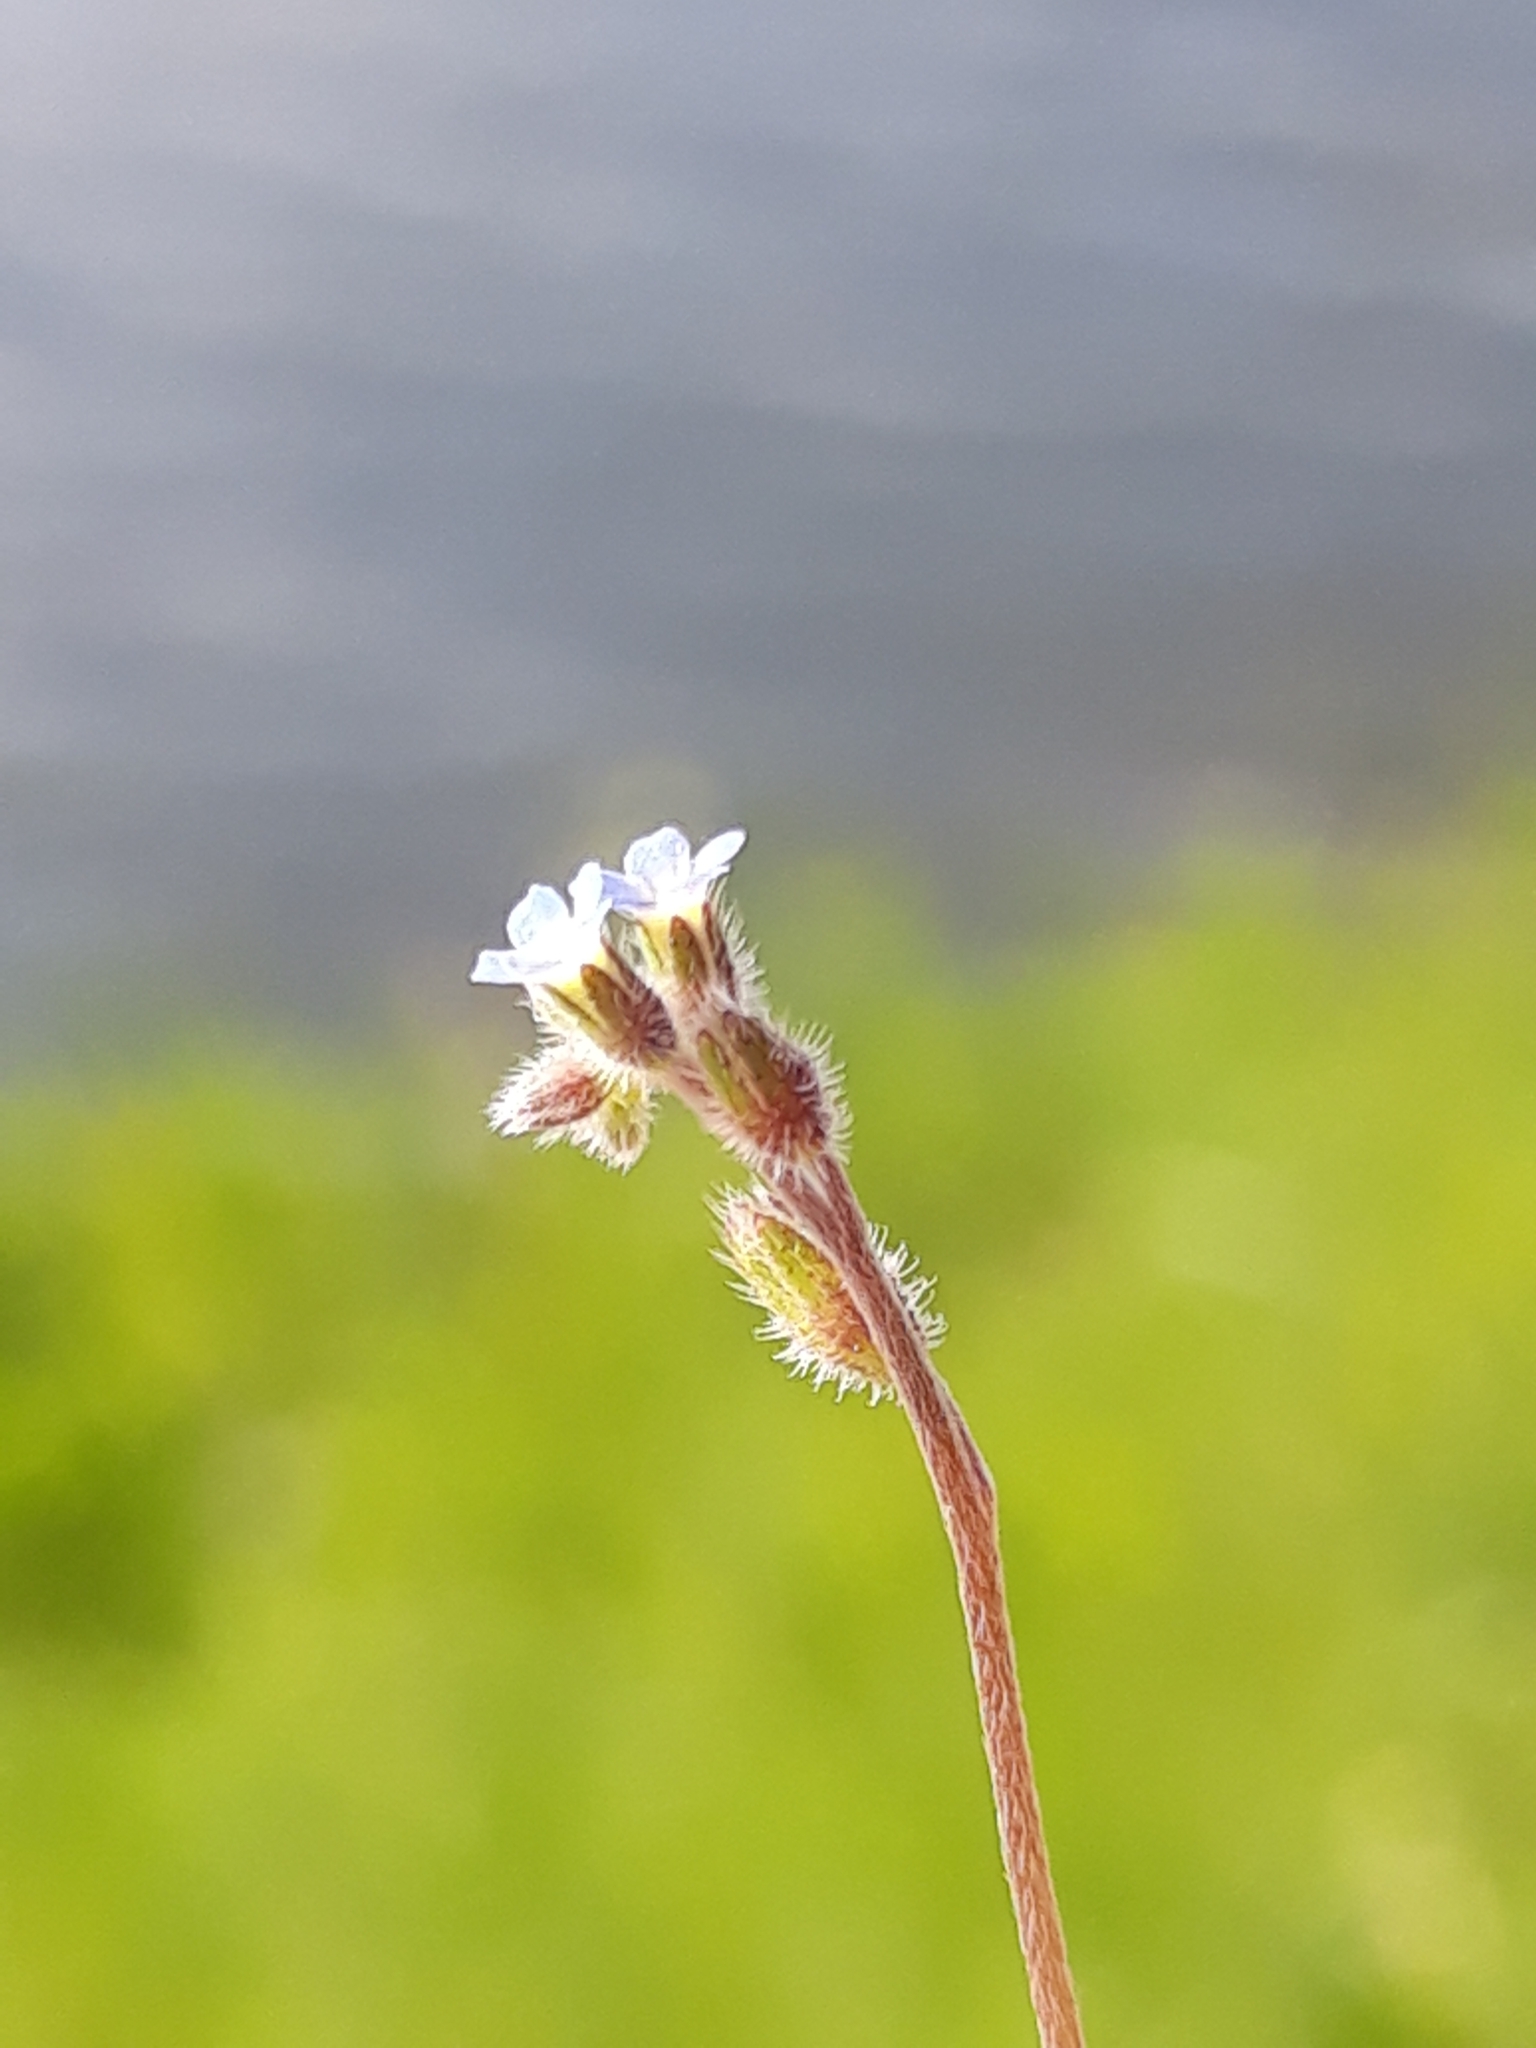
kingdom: Plantae
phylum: Tracheophyta
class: Magnoliopsida
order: Boraginales
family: Boraginaceae
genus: Myosotis
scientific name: Myosotis arvensis
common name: Field forget-me-not
